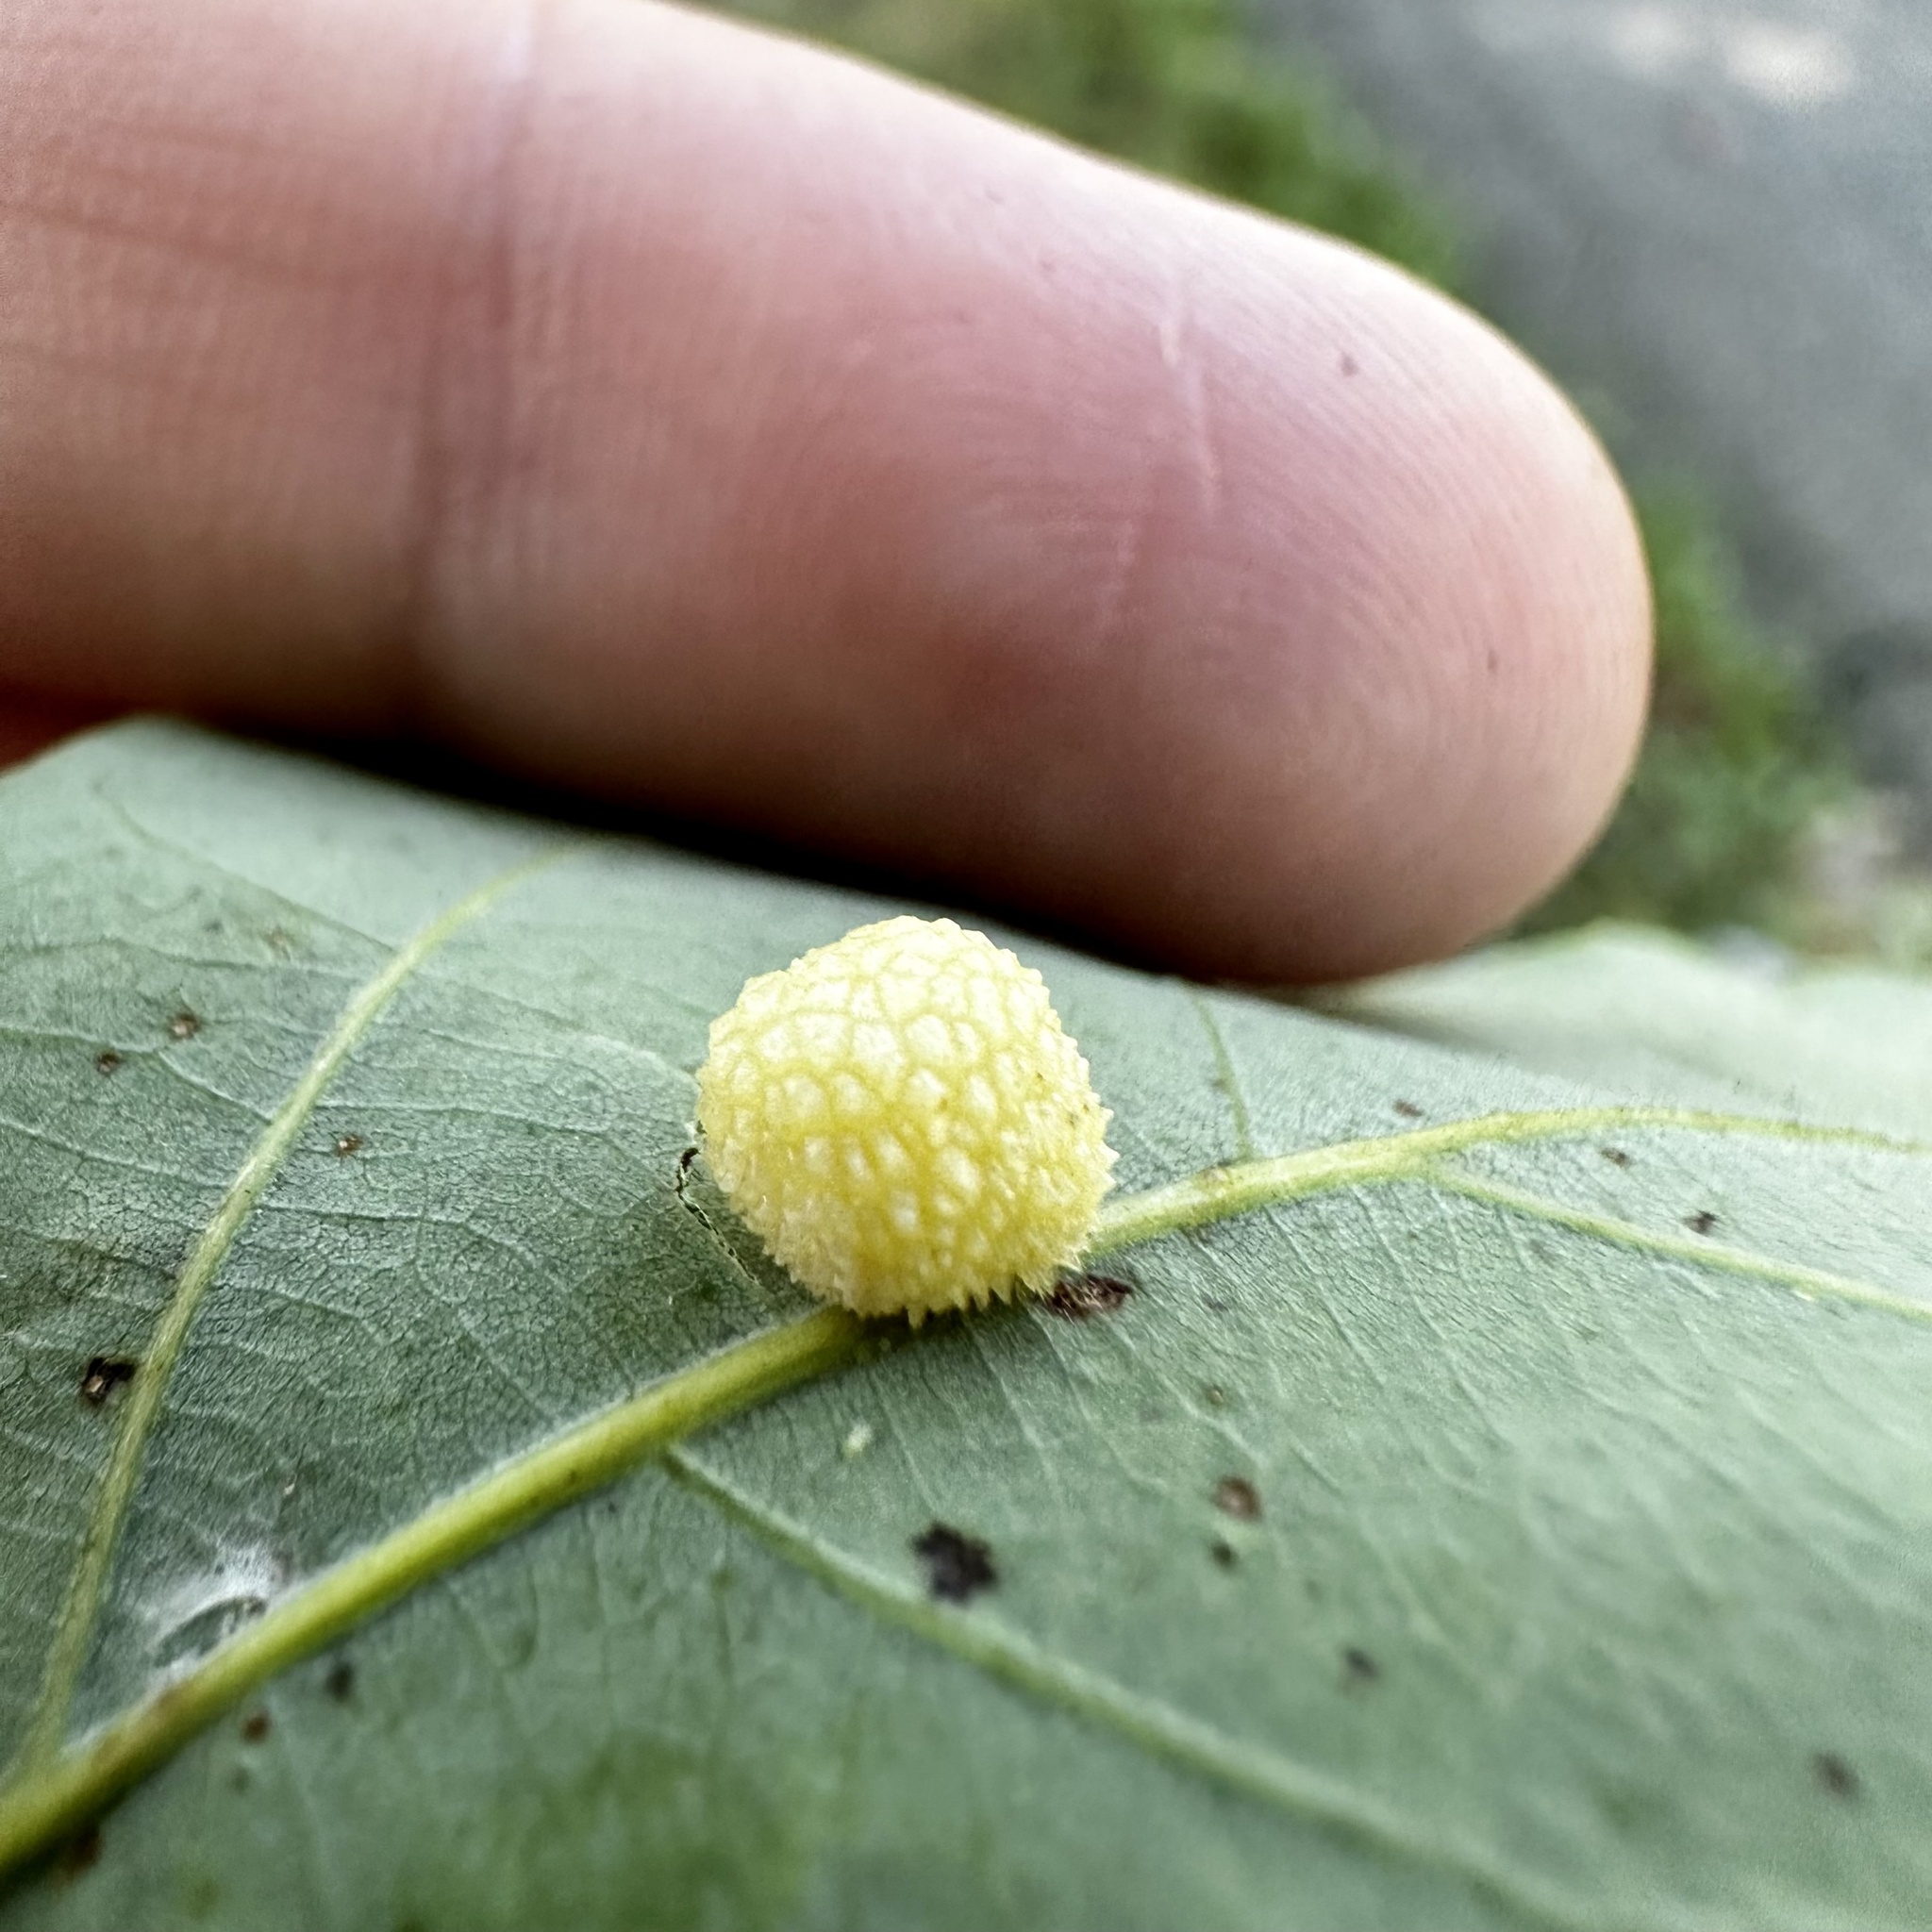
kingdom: Animalia
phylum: Arthropoda
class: Insecta
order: Hymenoptera
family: Cynipidae
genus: Acraspis
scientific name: Acraspis
